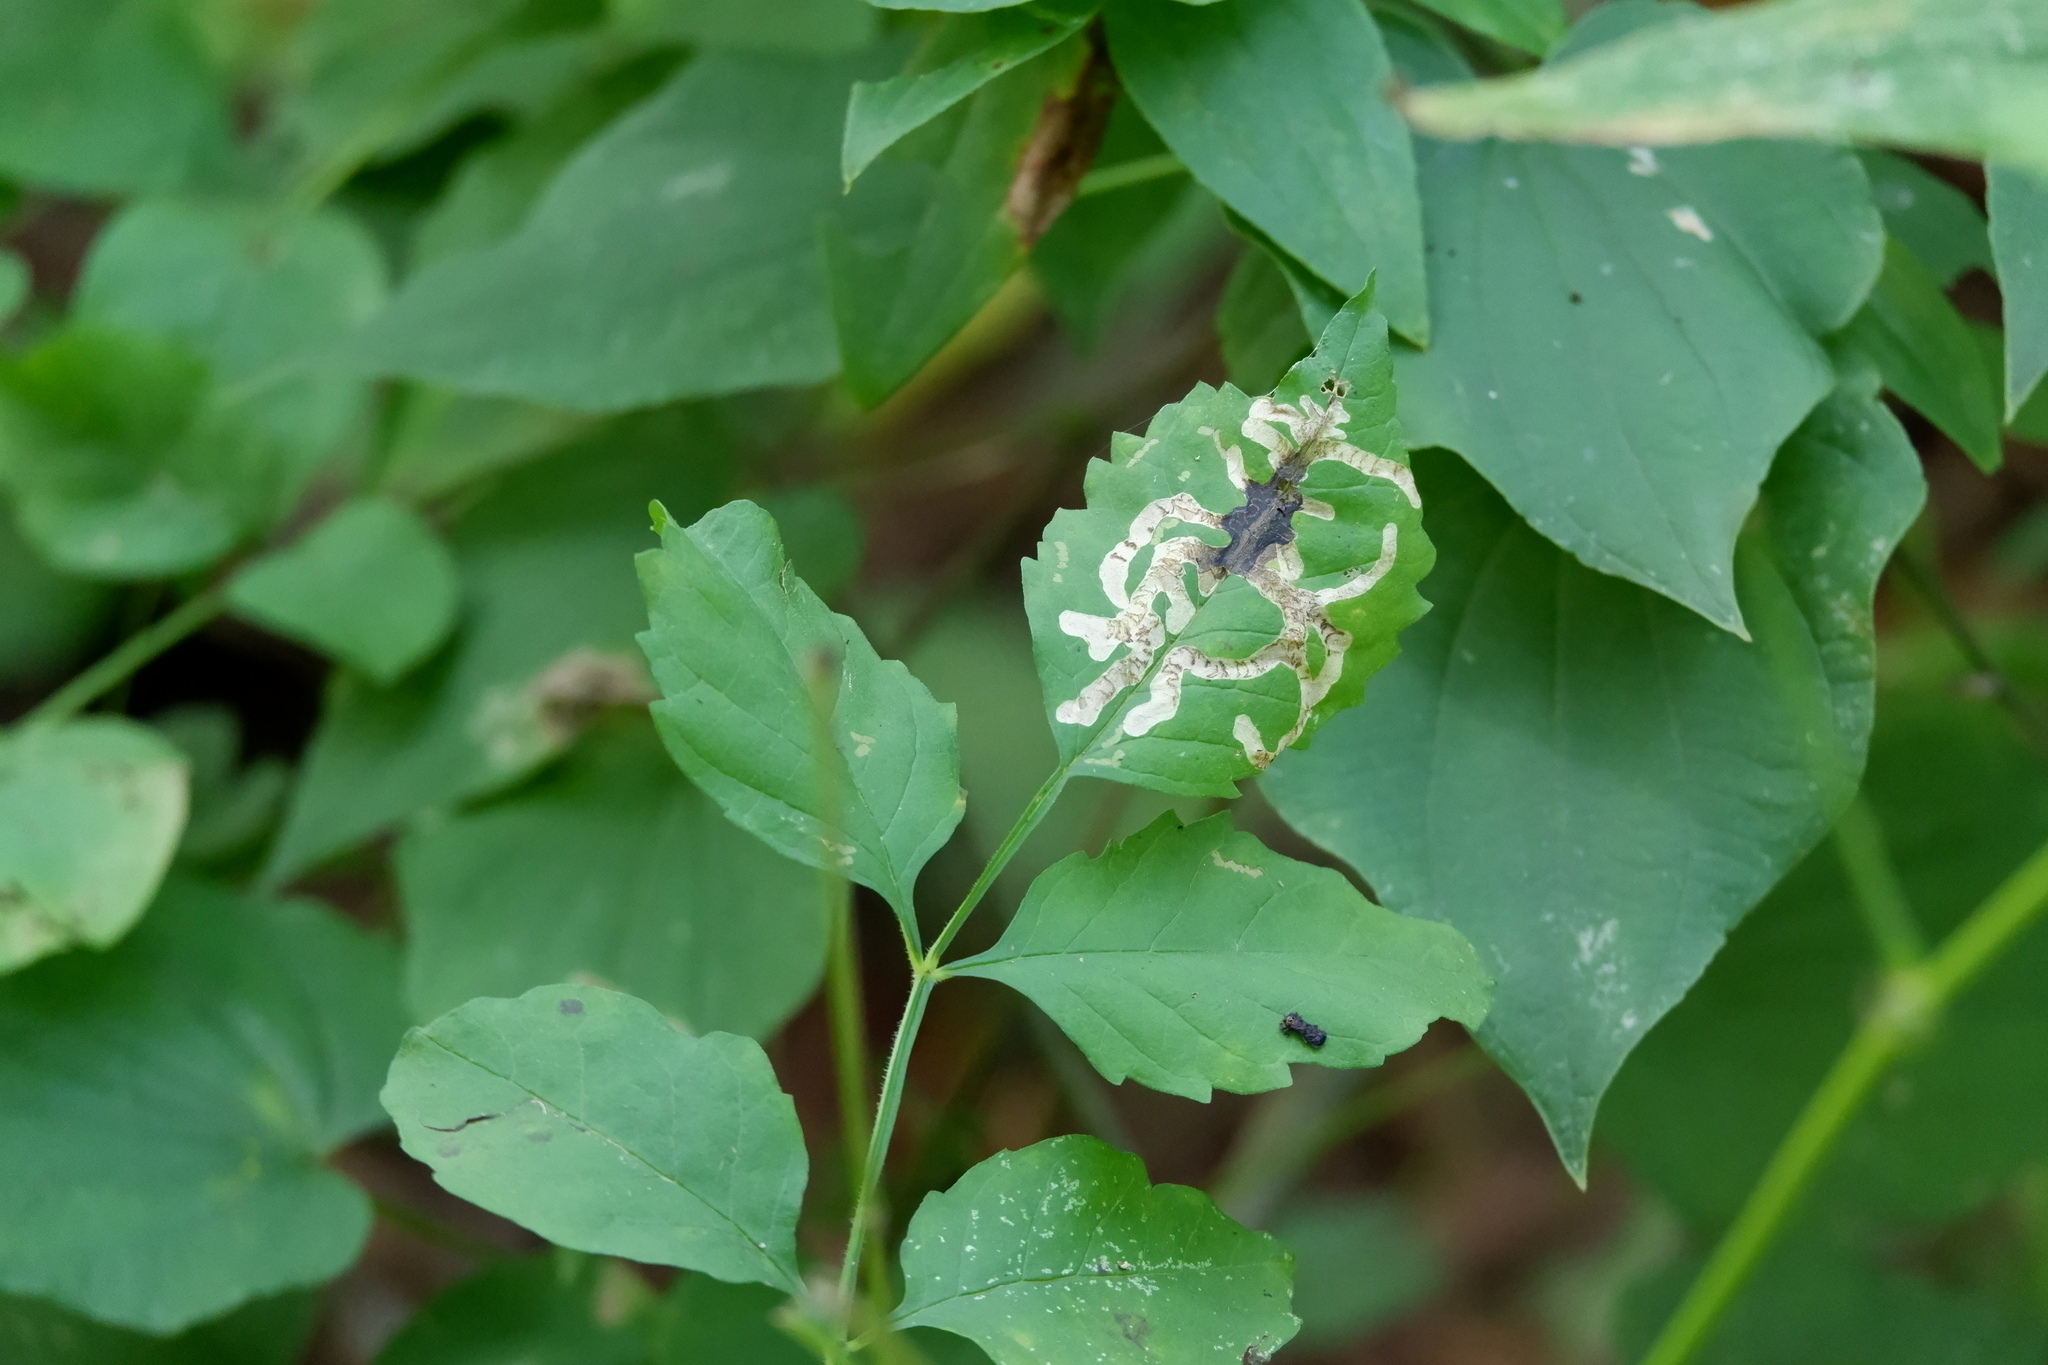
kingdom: Plantae
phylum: Tracheophyta
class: Magnoliopsida
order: Lamiales
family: Bignoniaceae
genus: Campsis
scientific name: Campsis radicans
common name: Trumpet-creeper
